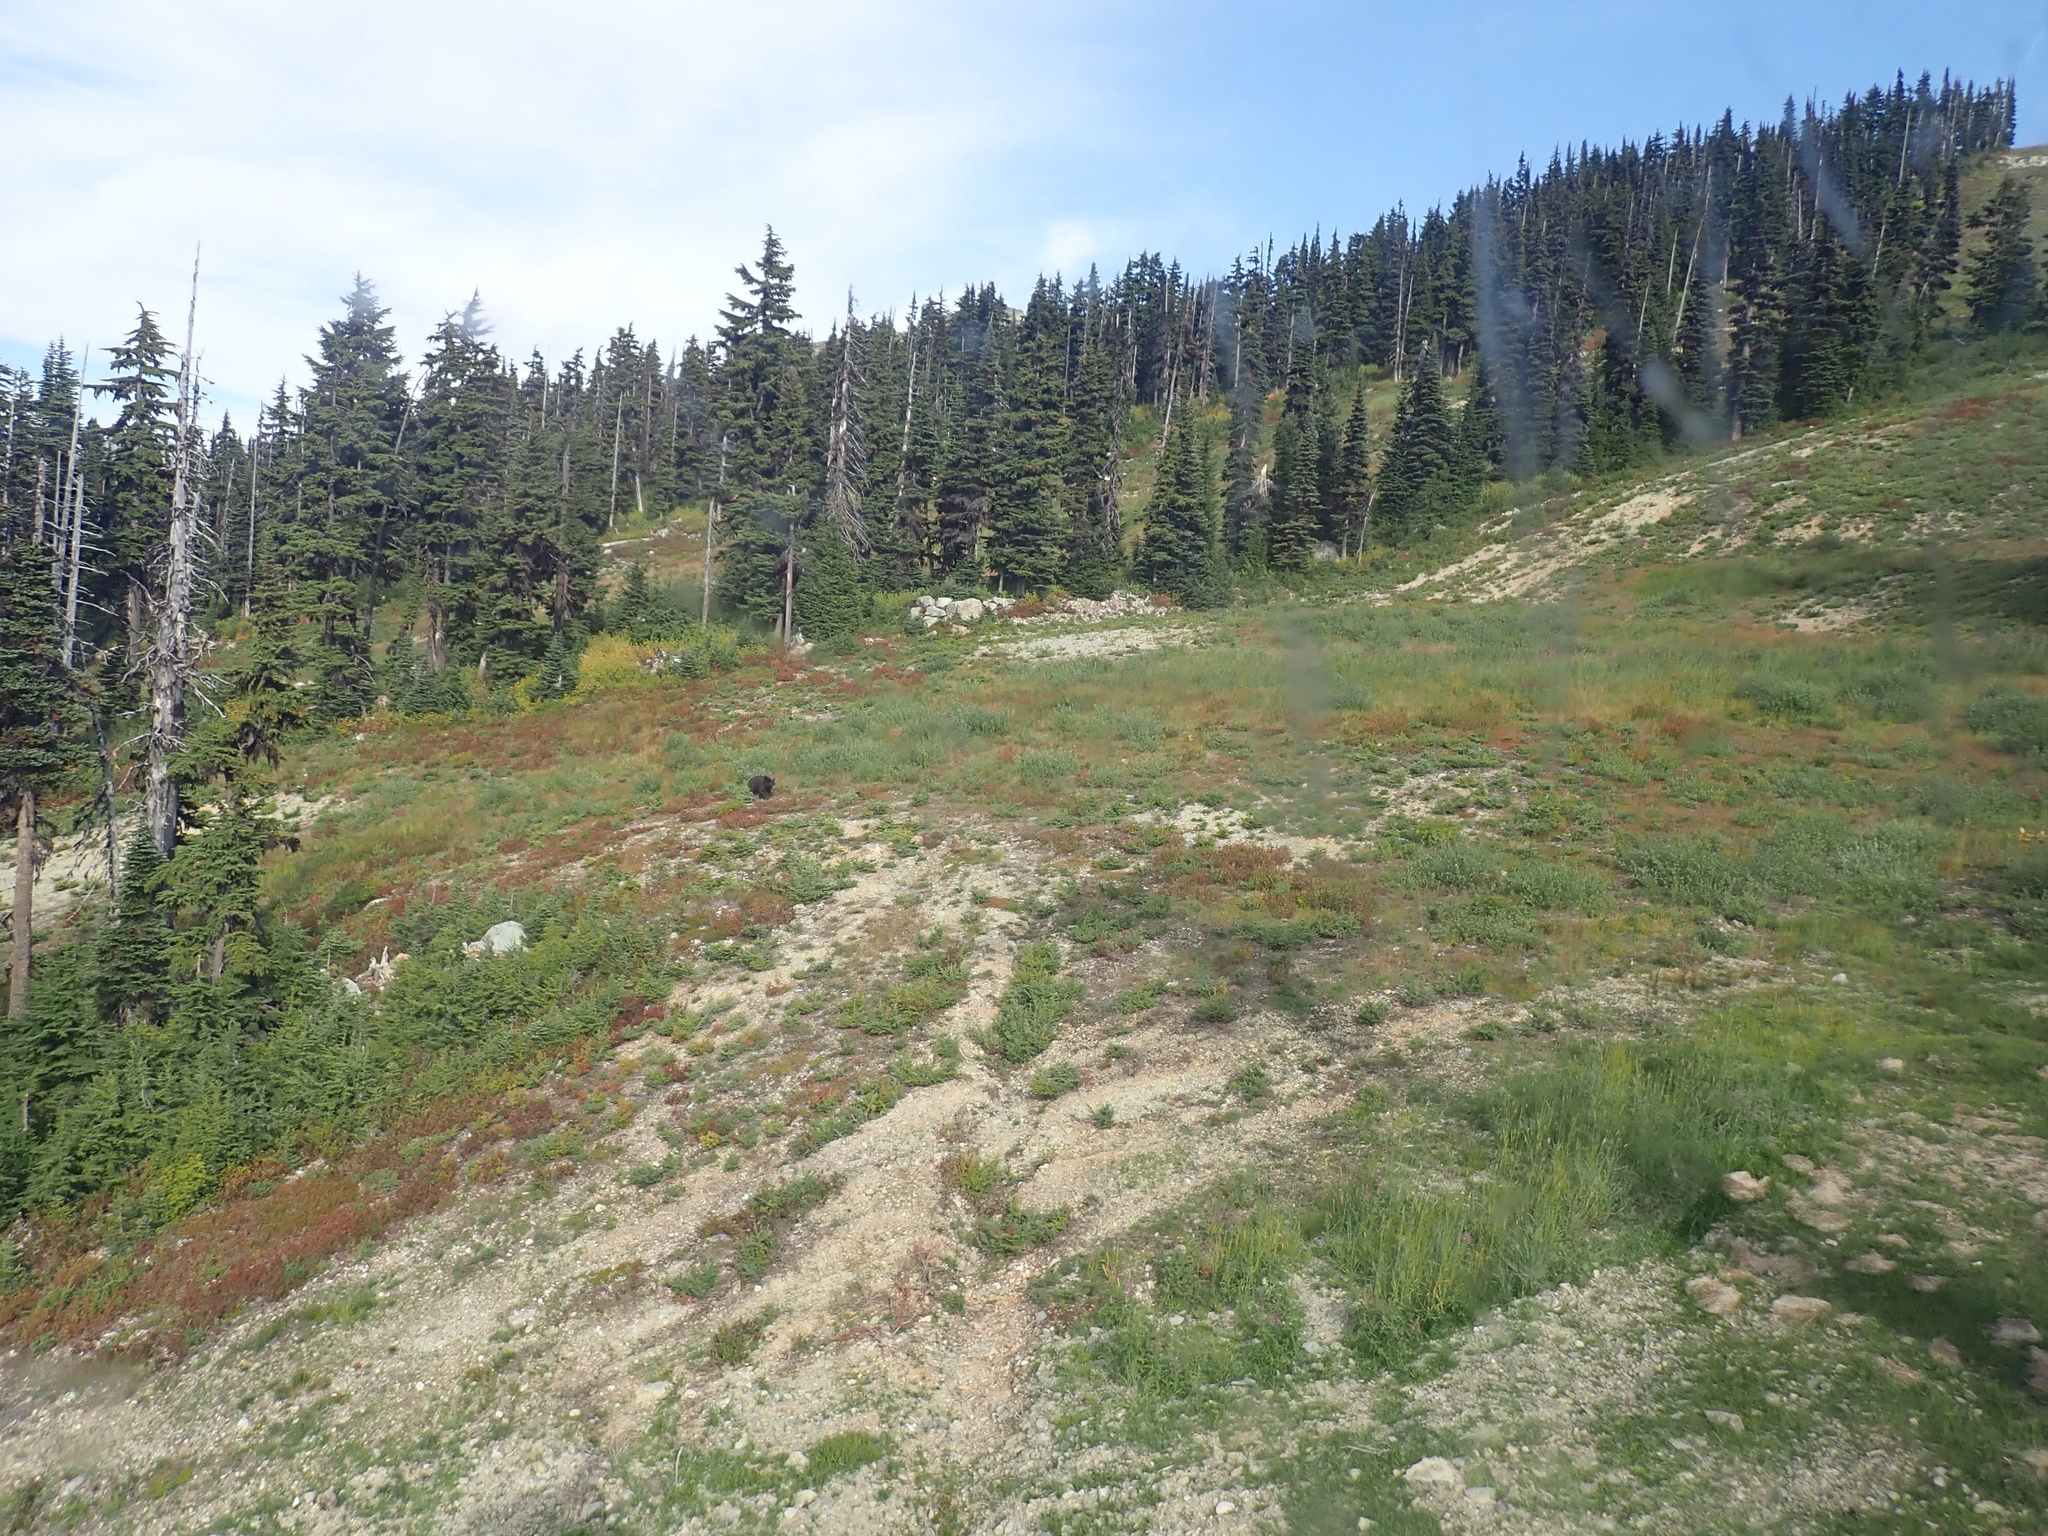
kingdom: Animalia
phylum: Chordata
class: Mammalia
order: Carnivora
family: Ursidae
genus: Ursus
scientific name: Ursus americanus
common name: American black bear
